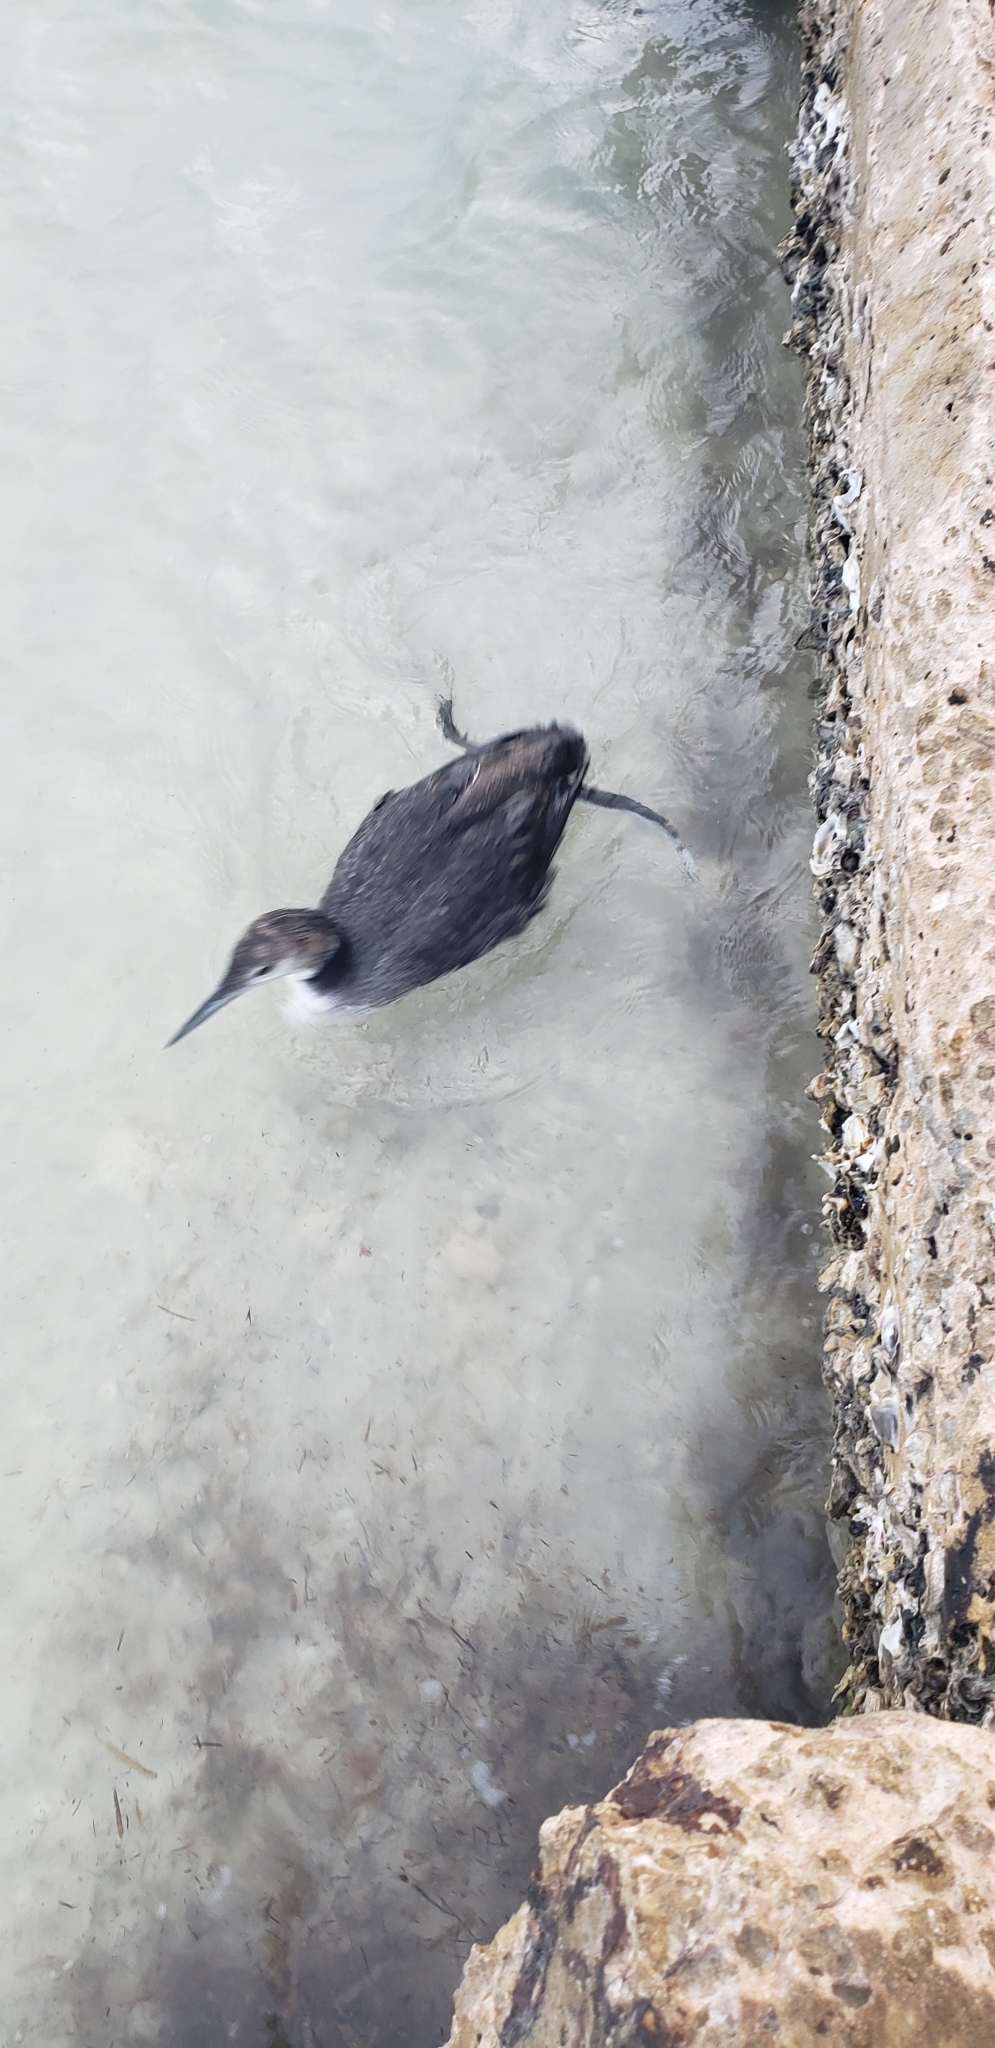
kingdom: Animalia
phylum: Chordata
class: Aves
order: Gaviiformes
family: Gaviidae
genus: Gavia
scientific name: Gavia immer
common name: Common loon
